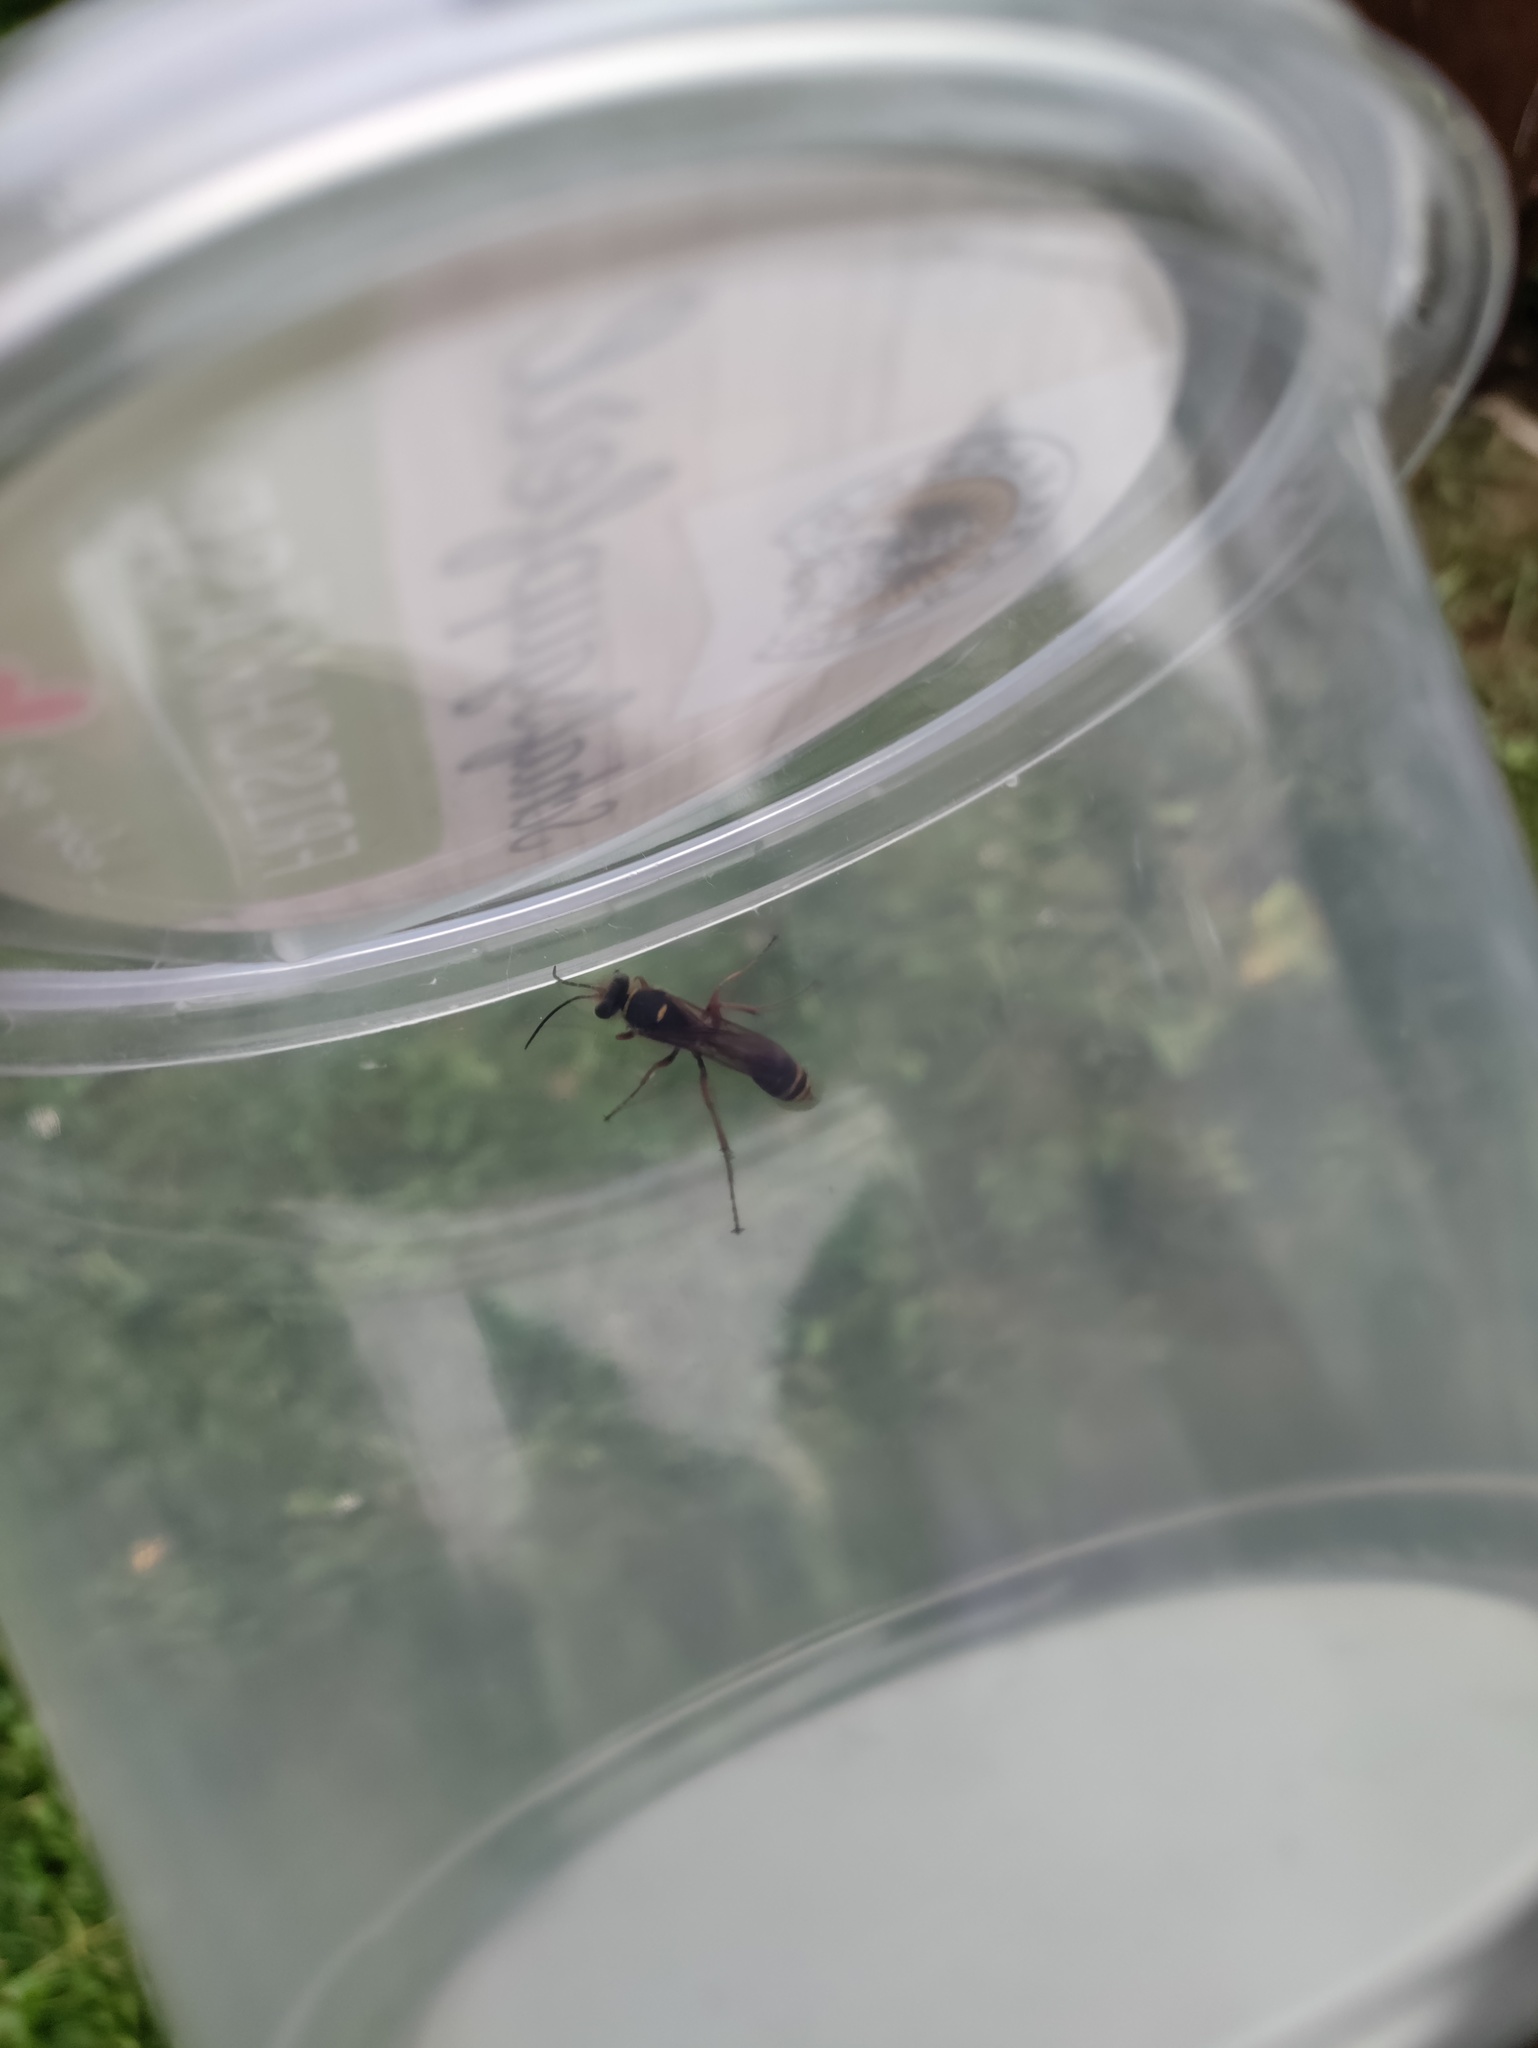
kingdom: Animalia
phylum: Arthropoda
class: Insecta
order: Hymenoptera
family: Sphecidae
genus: Sceliphron
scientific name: Sceliphron curvatum
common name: Pèlopèe
